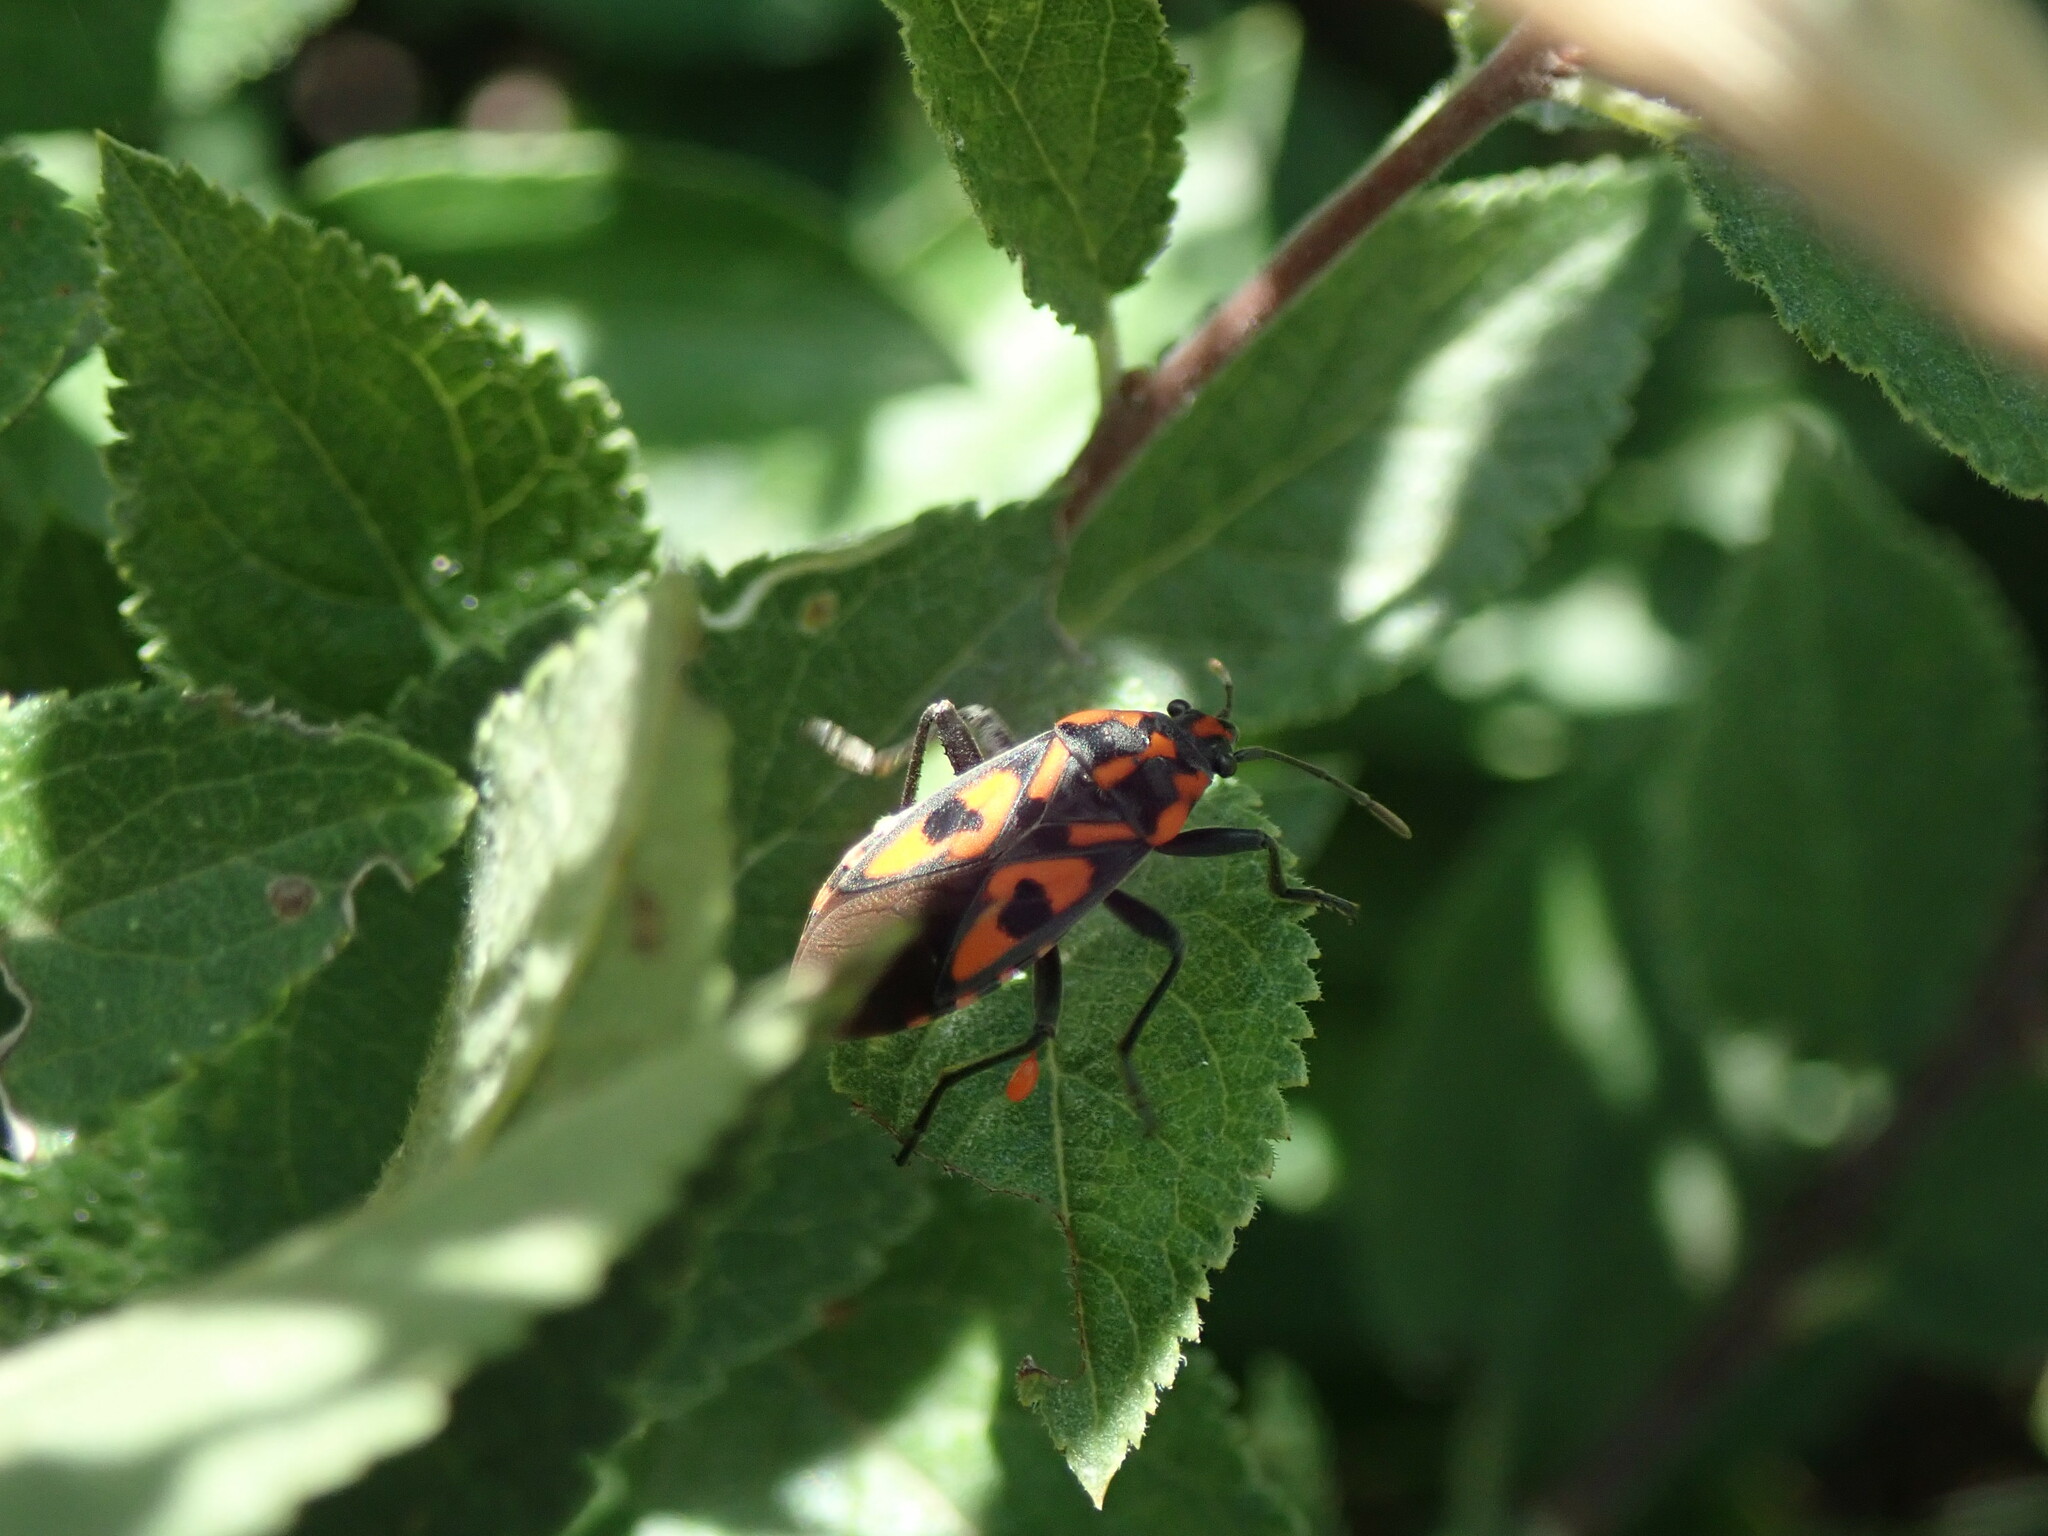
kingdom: Animalia
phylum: Arthropoda
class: Insecta
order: Hemiptera
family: Lygaeidae
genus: Spilostethus
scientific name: Spilostethus saxatilis
